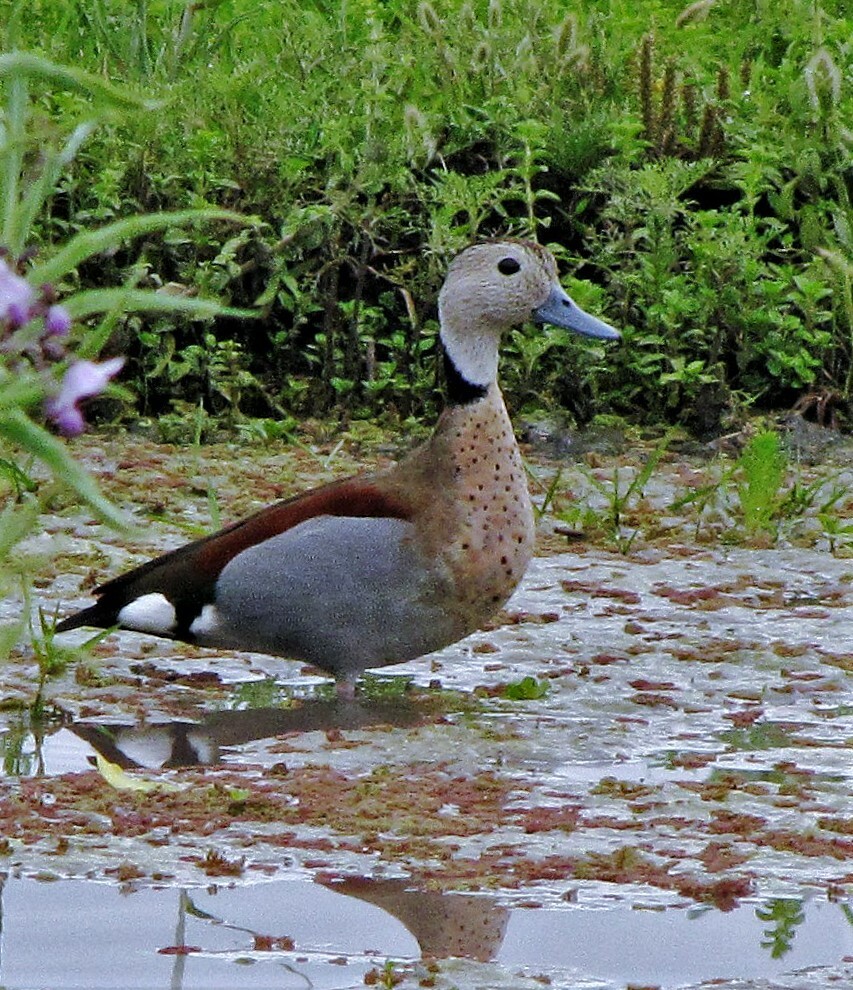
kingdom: Animalia
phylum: Chordata
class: Aves
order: Anseriformes
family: Anatidae
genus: Callonetta
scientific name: Callonetta leucophrys
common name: Ringed teal
